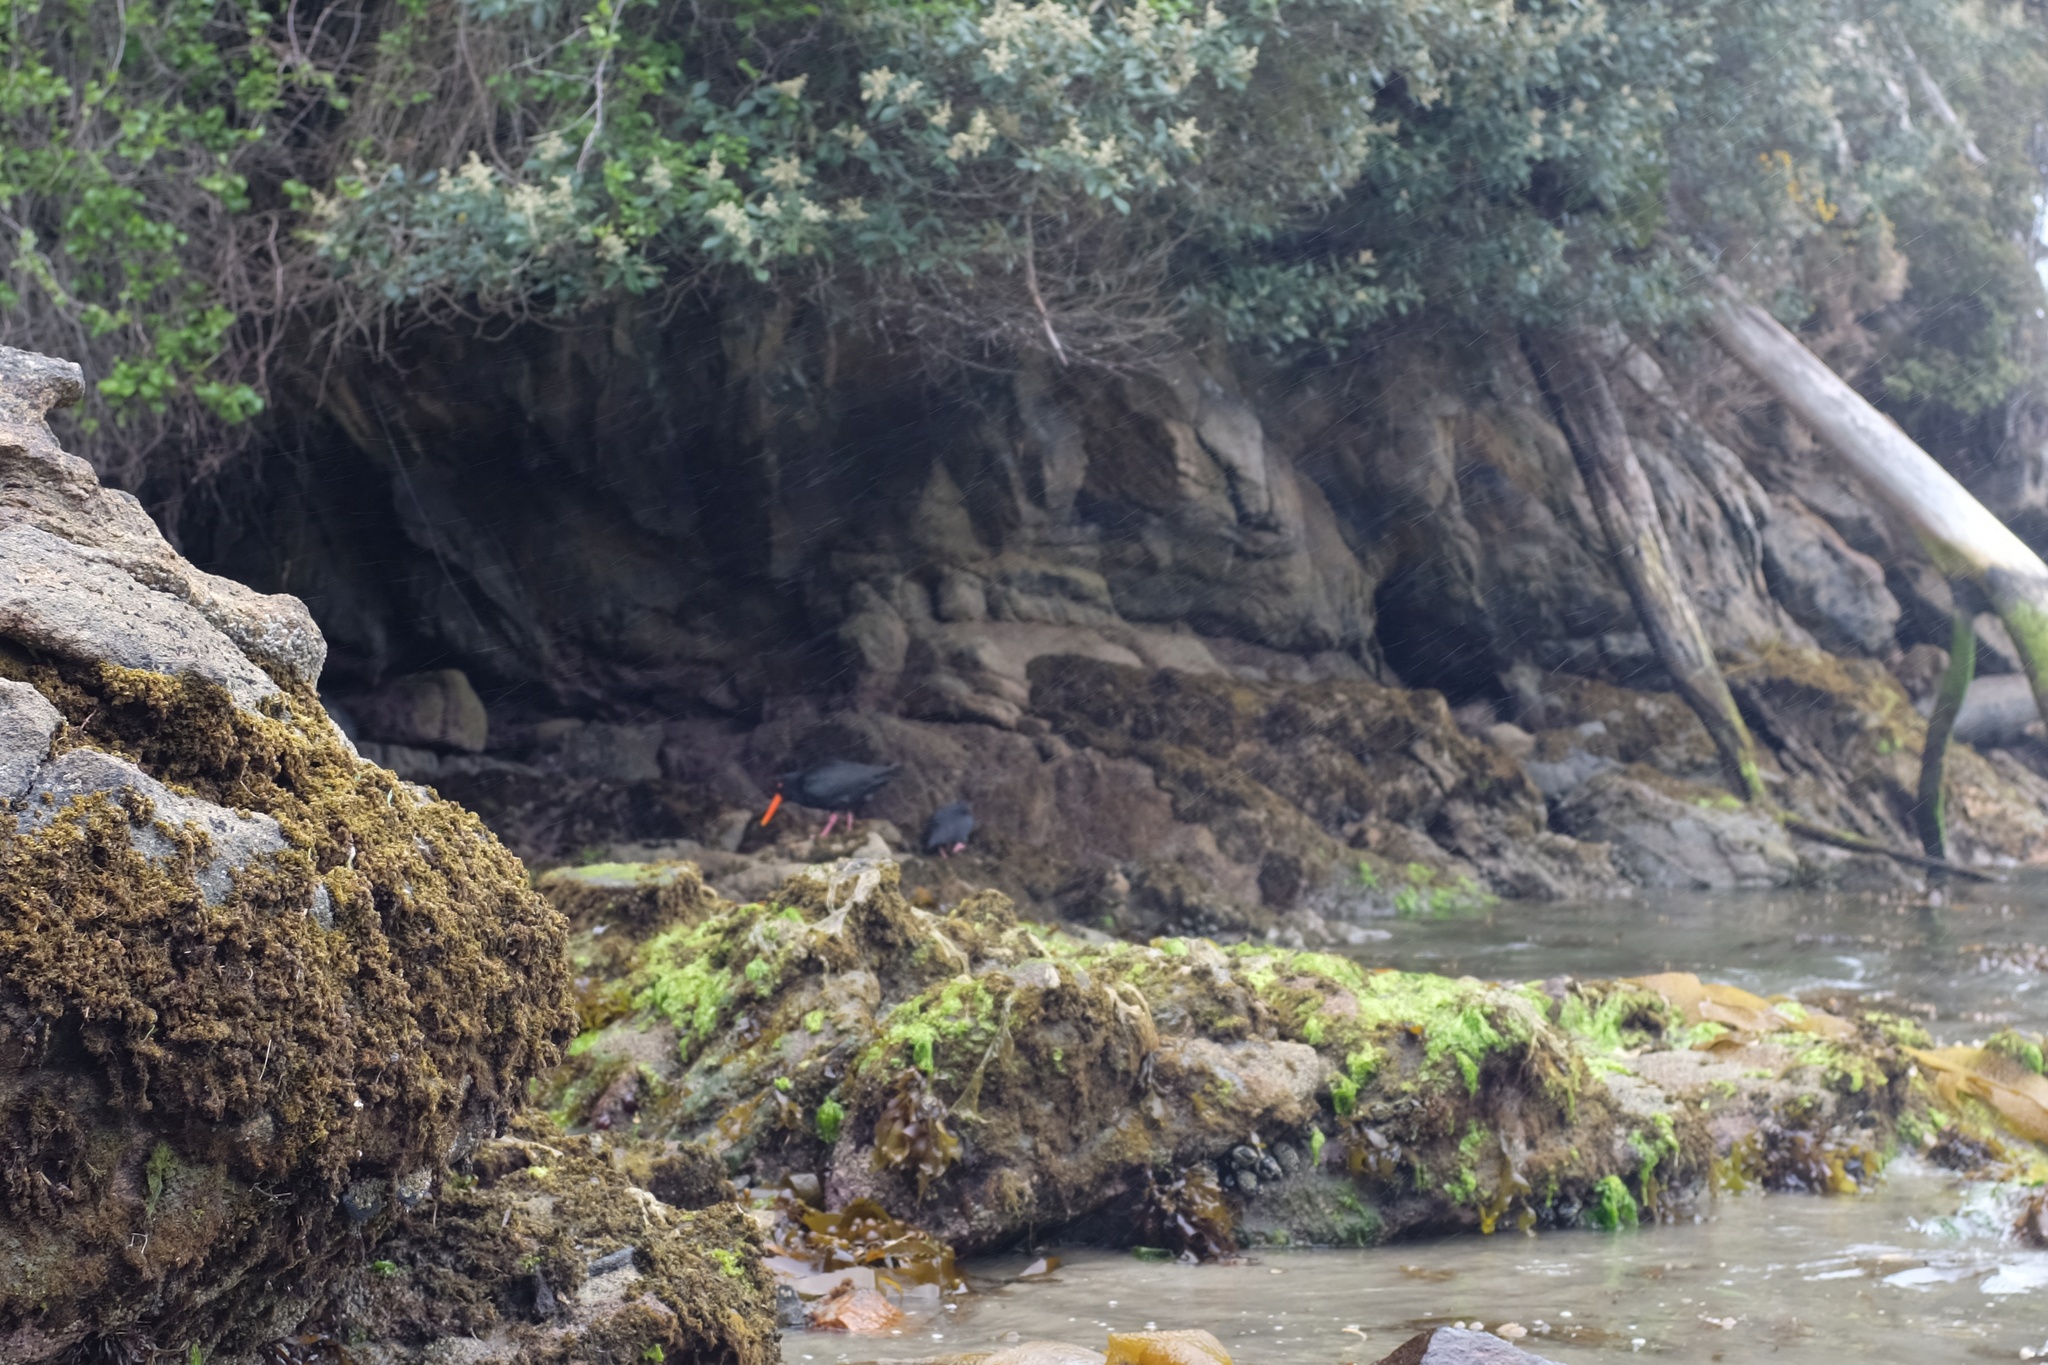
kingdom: Animalia
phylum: Chordata
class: Aves
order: Charadriiformes
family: Haematopodidae
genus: Haematopus
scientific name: Haematopus unicolor
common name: Variable oystercatcher
